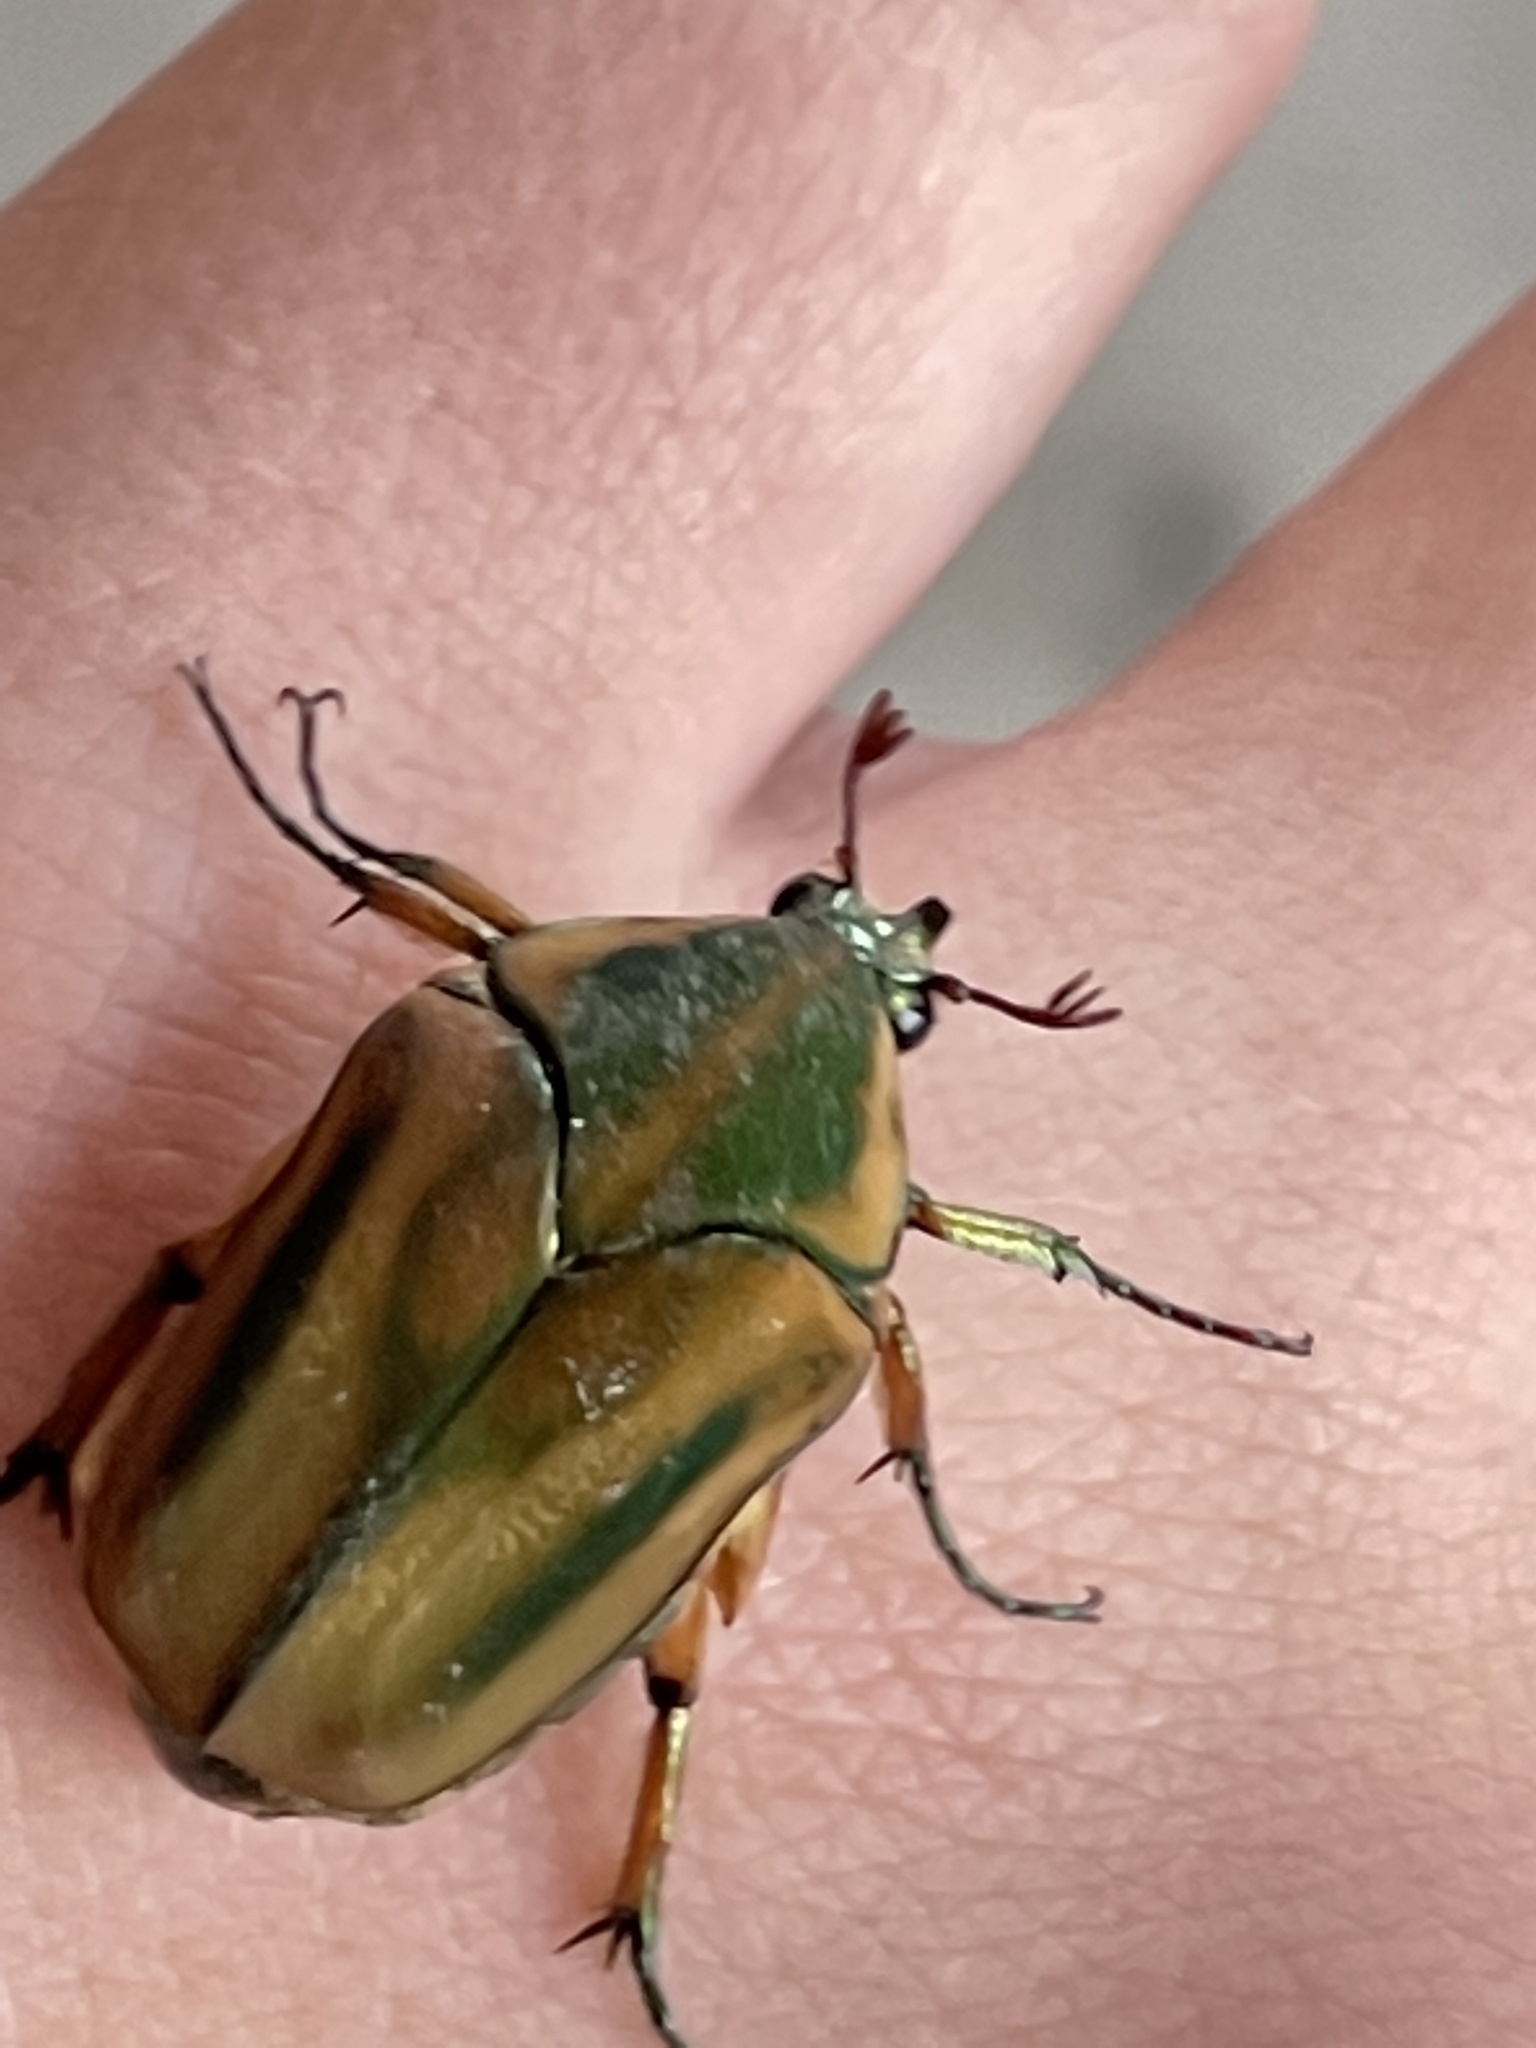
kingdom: Animalia
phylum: Arthropoda
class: Insecta
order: Coleoptera
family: Scarabaeidae
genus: Cotinis
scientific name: Cotinis nitida
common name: Common green june beetle
